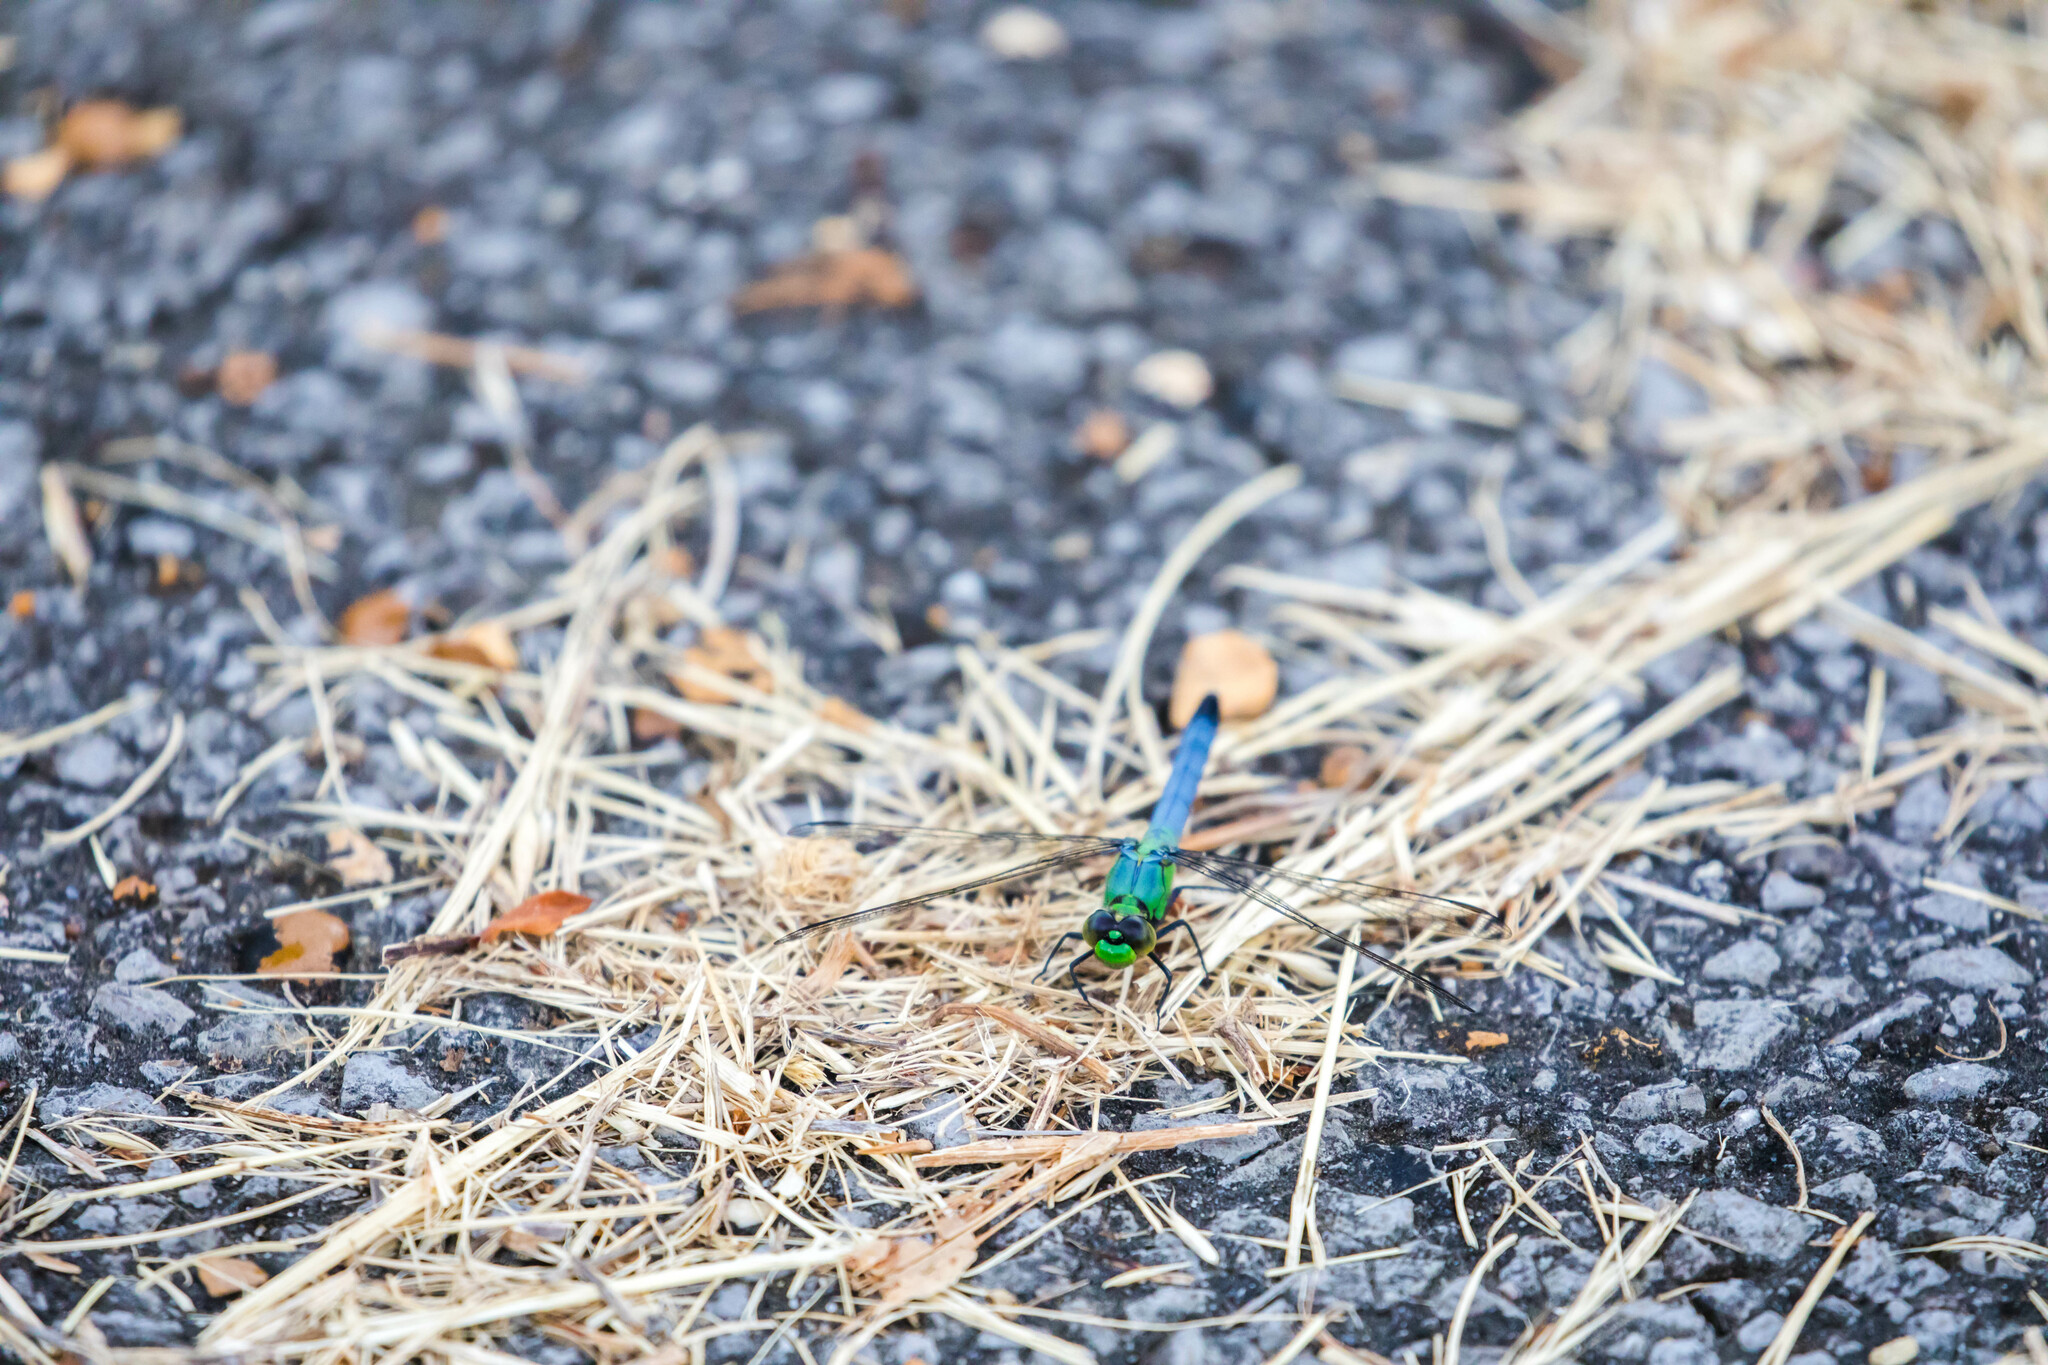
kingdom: Animalia
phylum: Arthropoda
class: Insecta
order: Odonata
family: Libellulidae
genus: Erythemis
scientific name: Erythemis simplicicollis
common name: Eastern pondhawk
